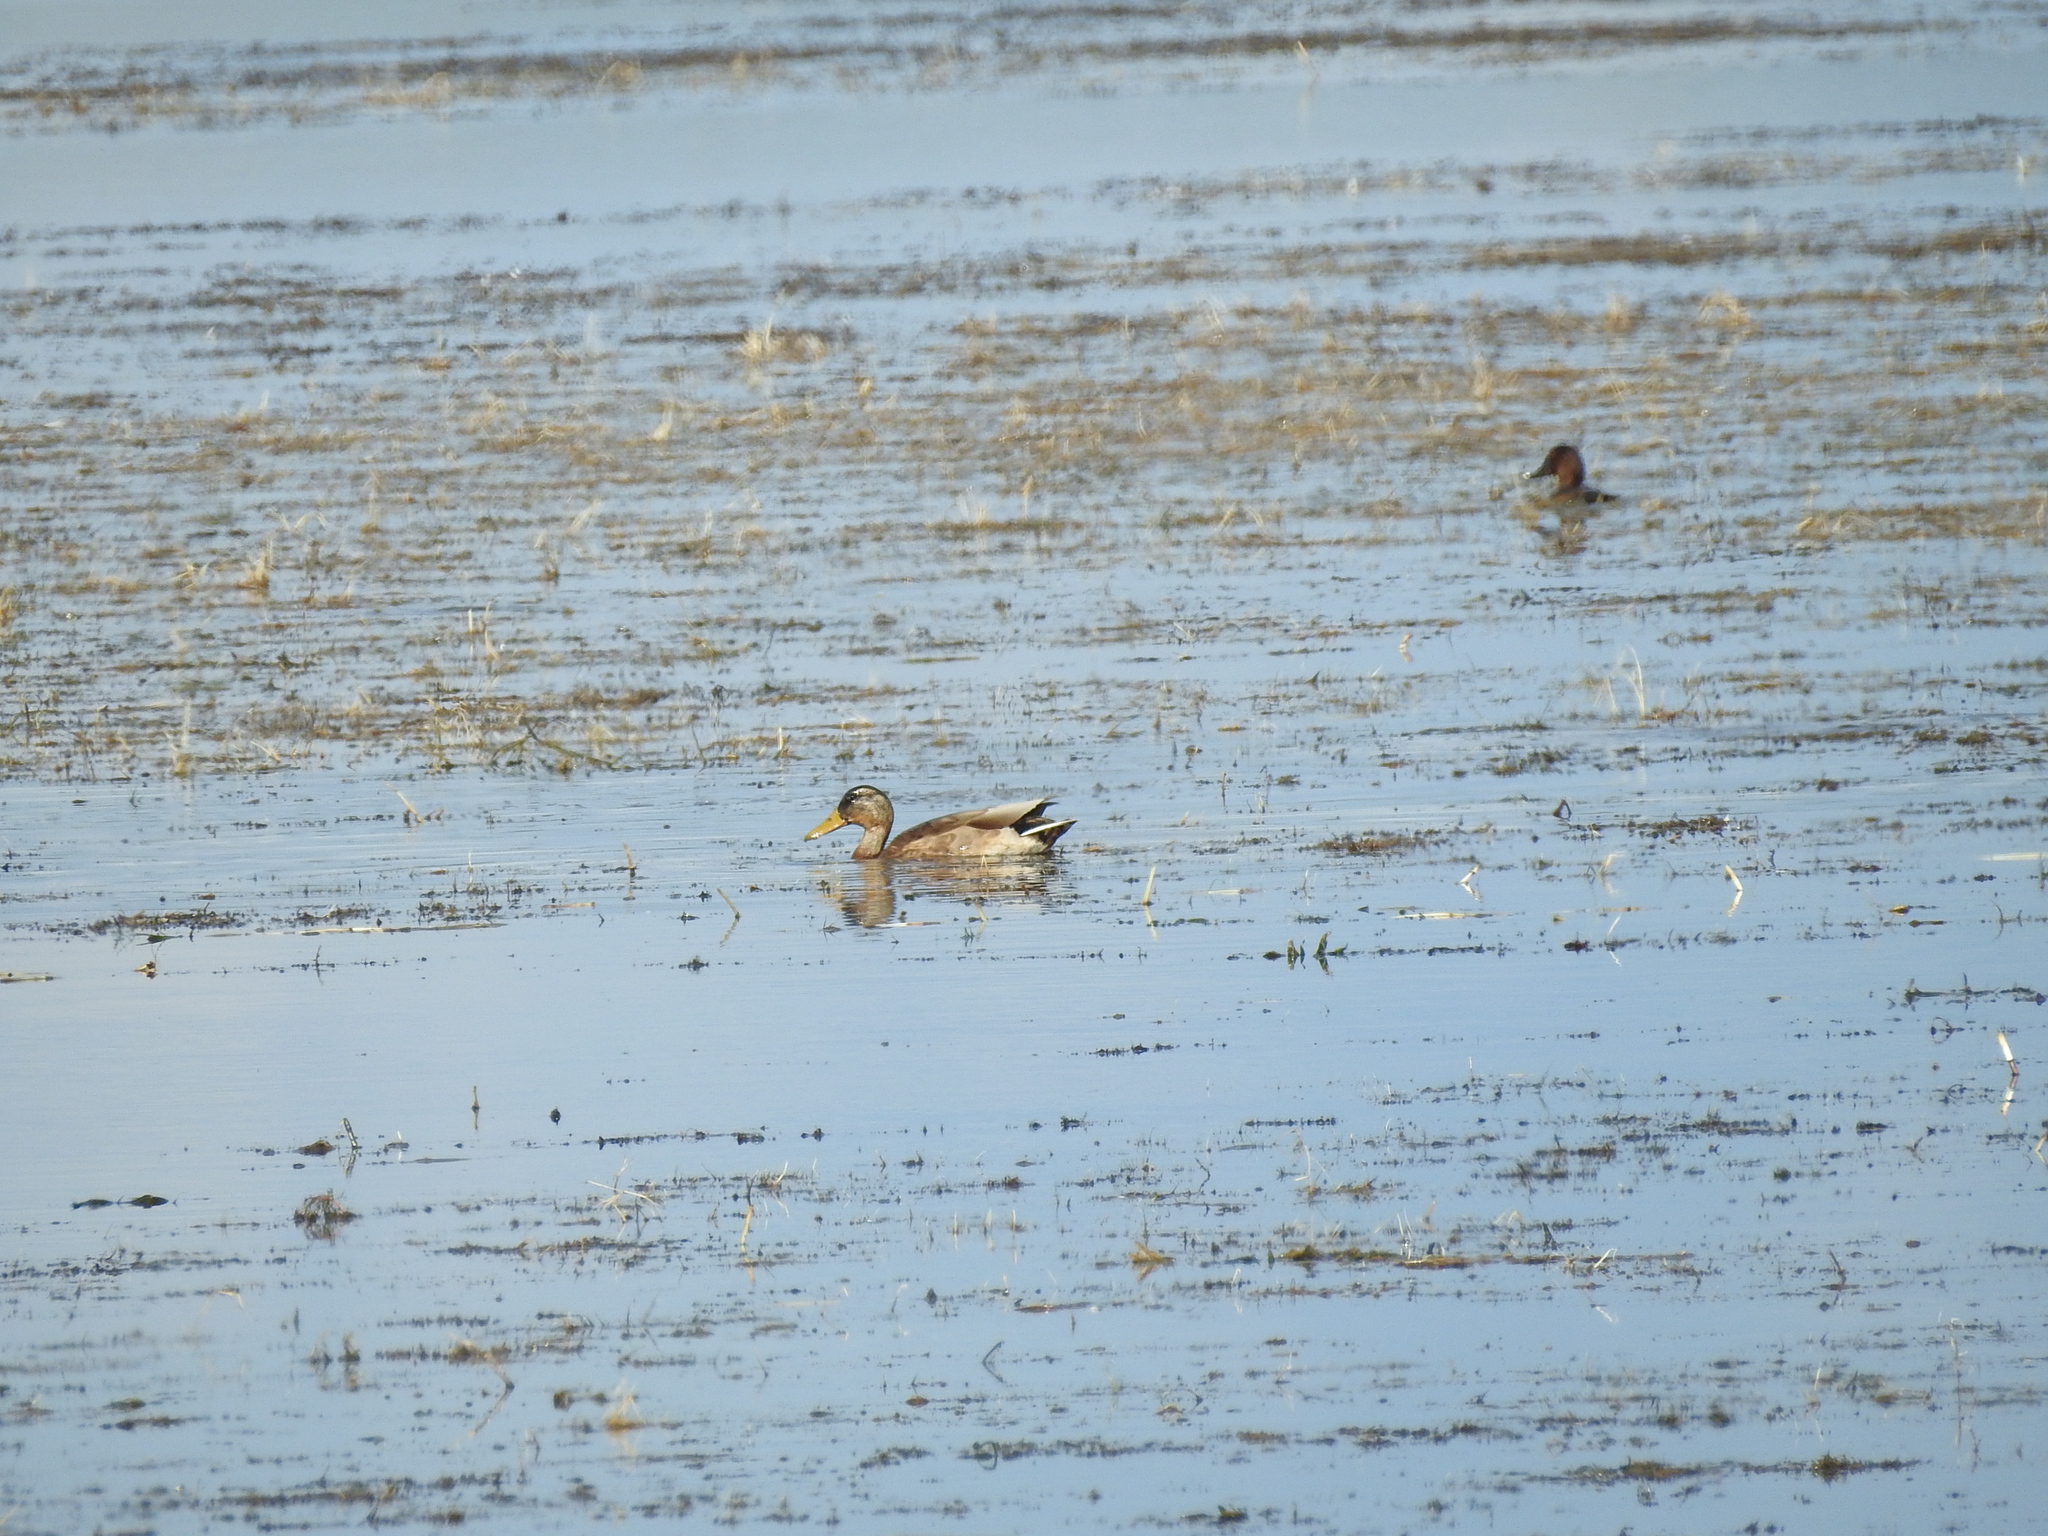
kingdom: Animalia
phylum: Chordata
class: Aves
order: Anseriformes
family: Anatidae
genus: Anas
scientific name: Anas platyrhynchos
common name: Mallard
